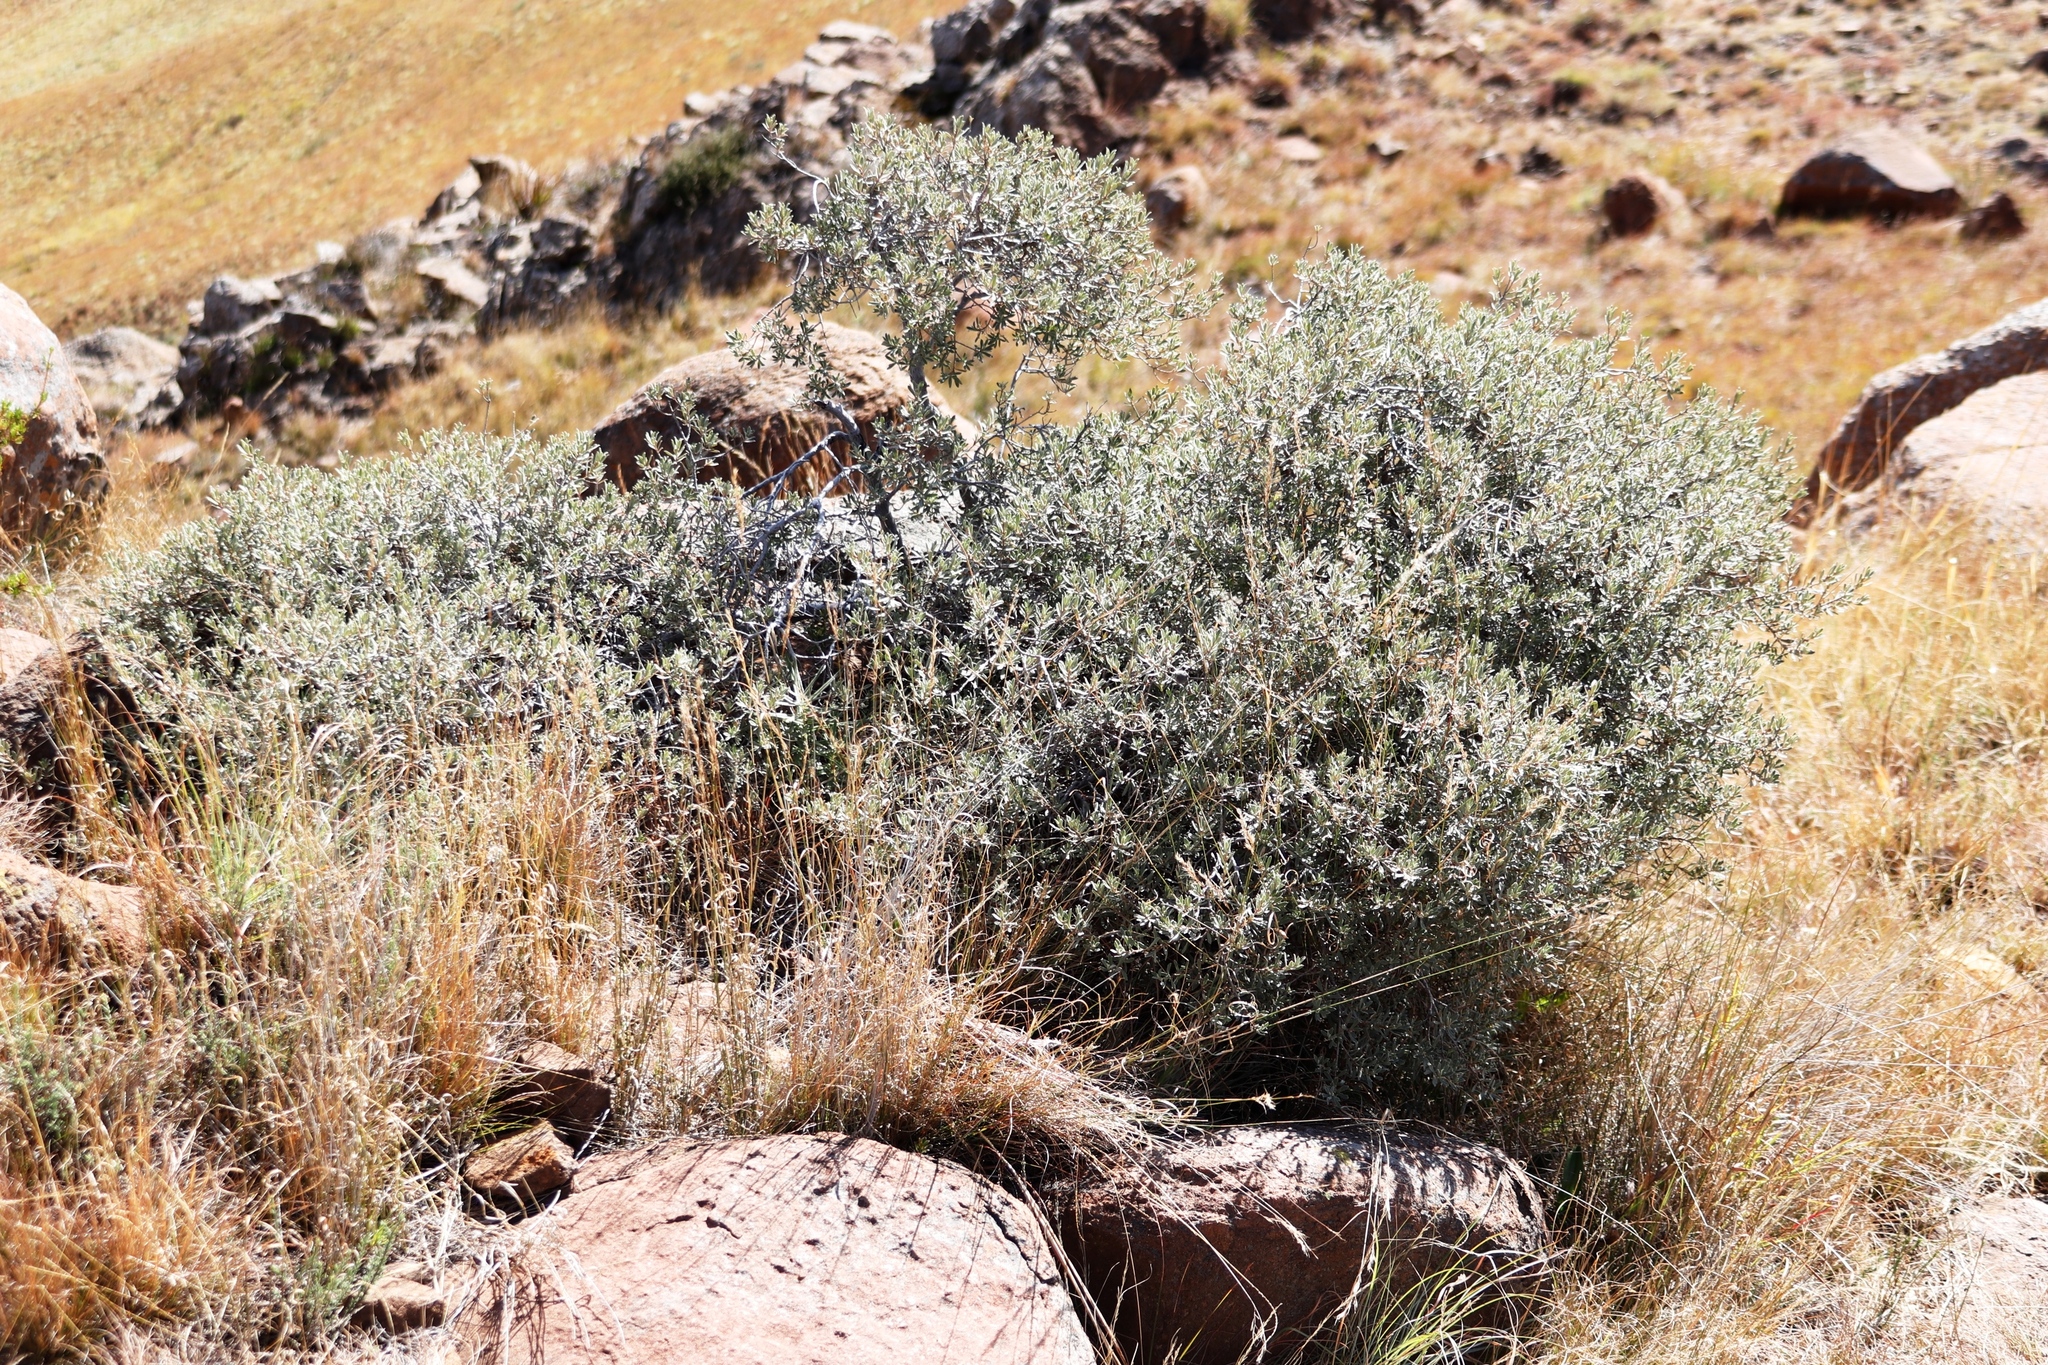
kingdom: Plantae
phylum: Tracheophyta
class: Magnoliopsida
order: Ericales
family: Ebenaceae
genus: Diospyros
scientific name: Diospyros pubescens
